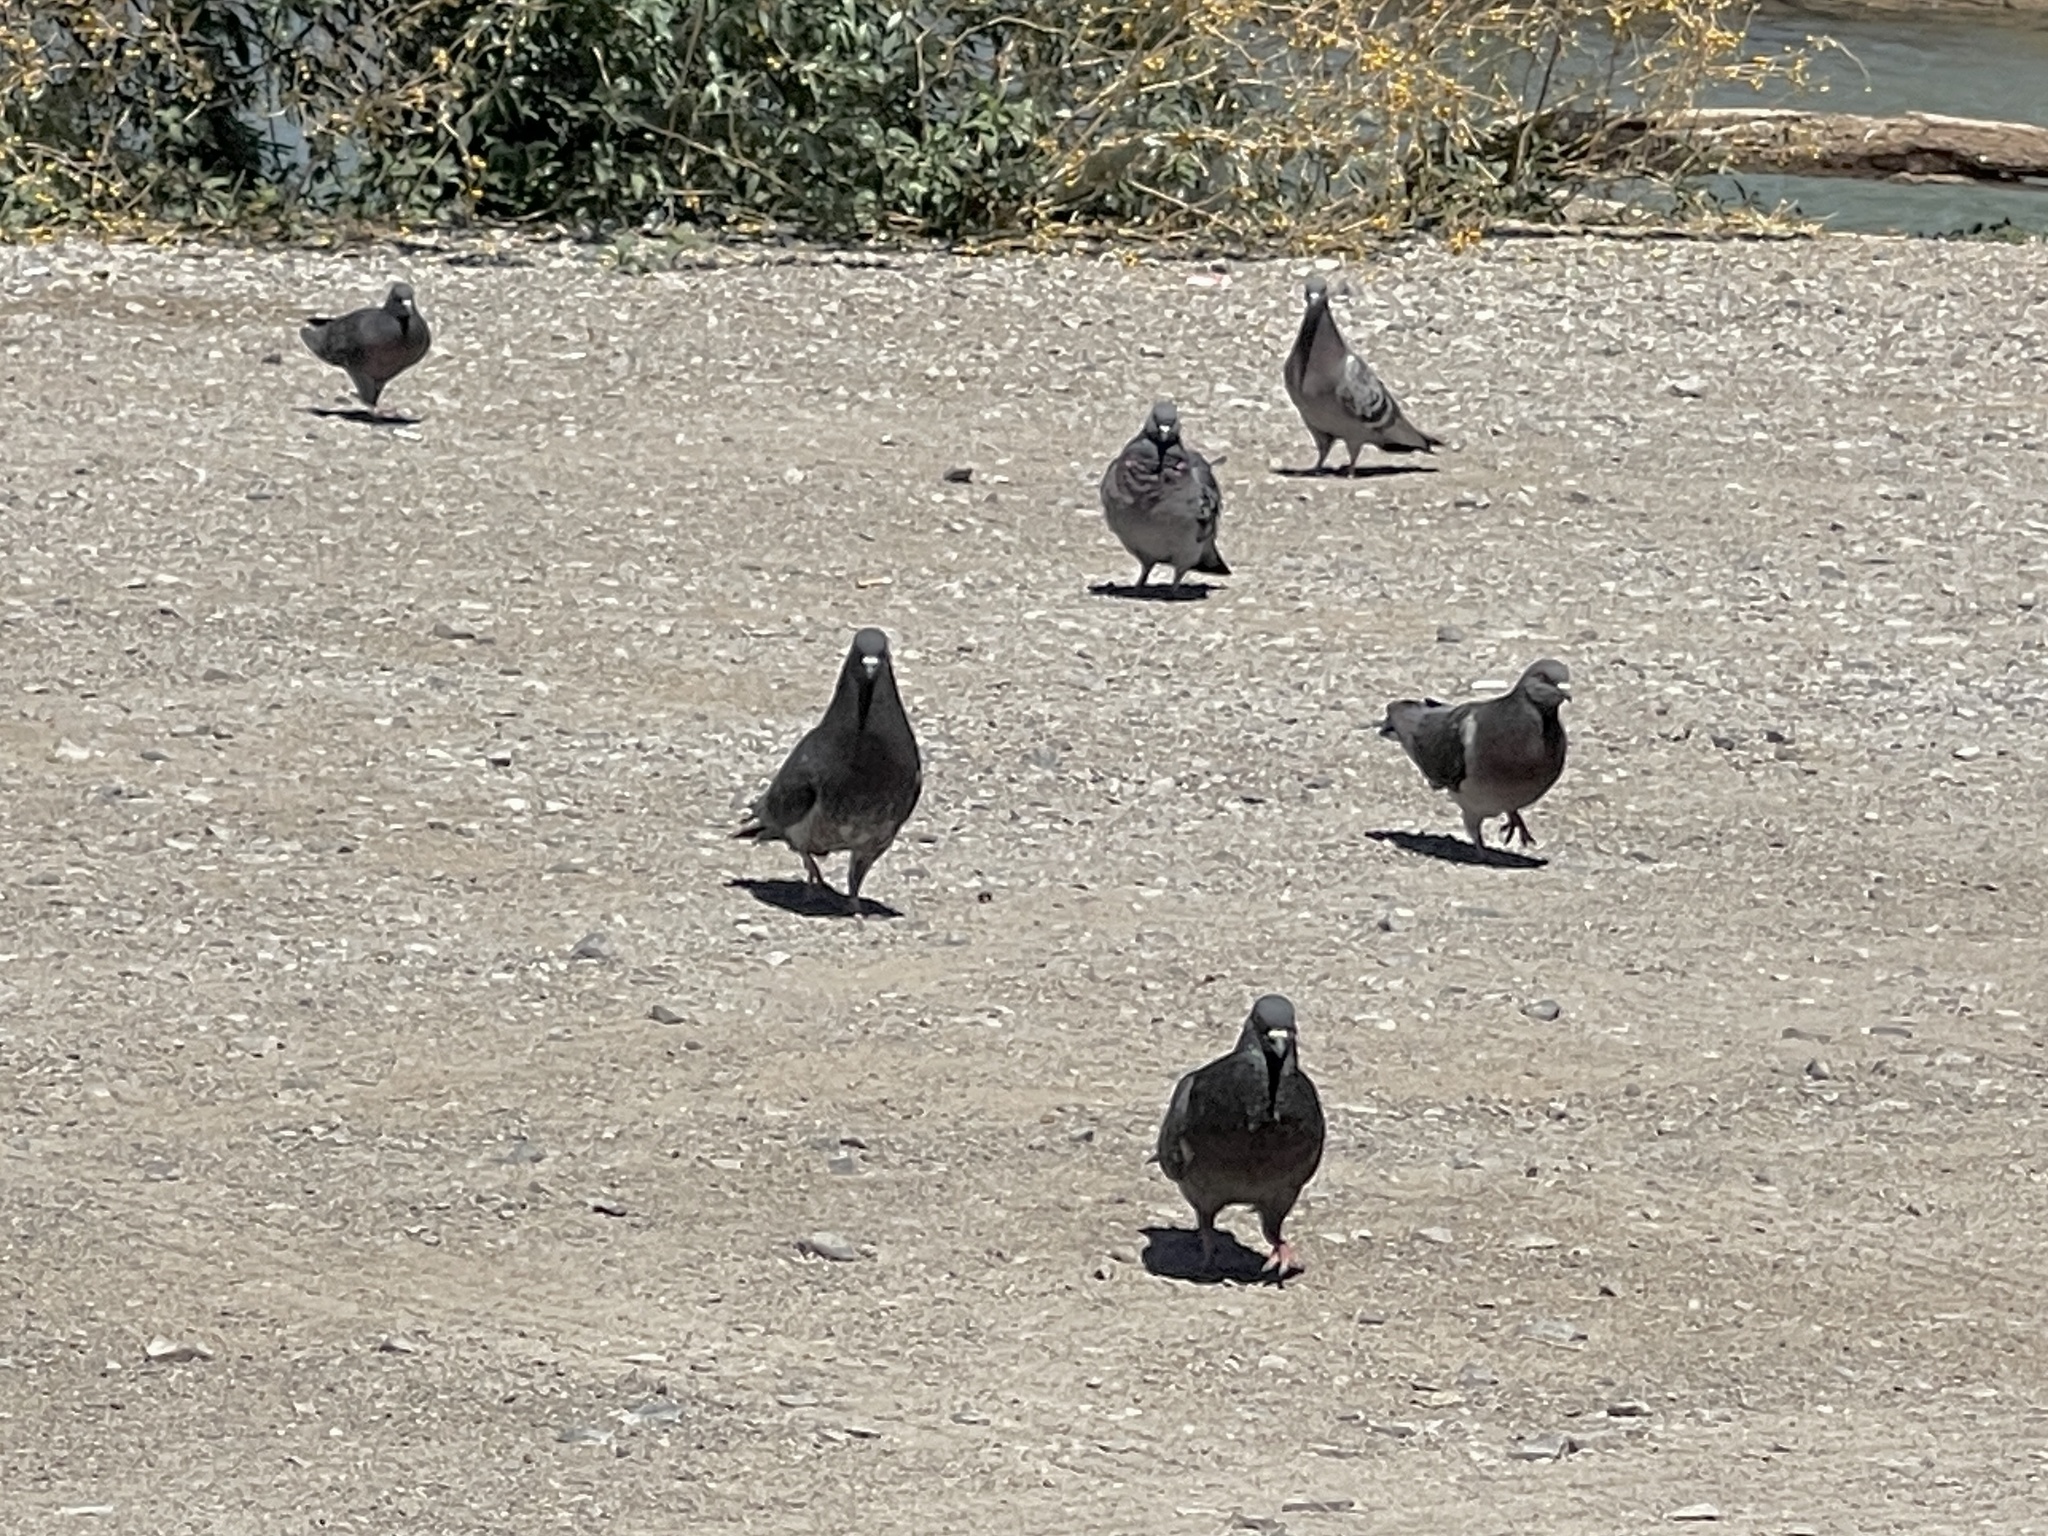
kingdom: Animalia
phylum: Chordata
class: Aves
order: Columbiformes
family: Columbidae
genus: Columba
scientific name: Columba livia
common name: Rock pigeon
